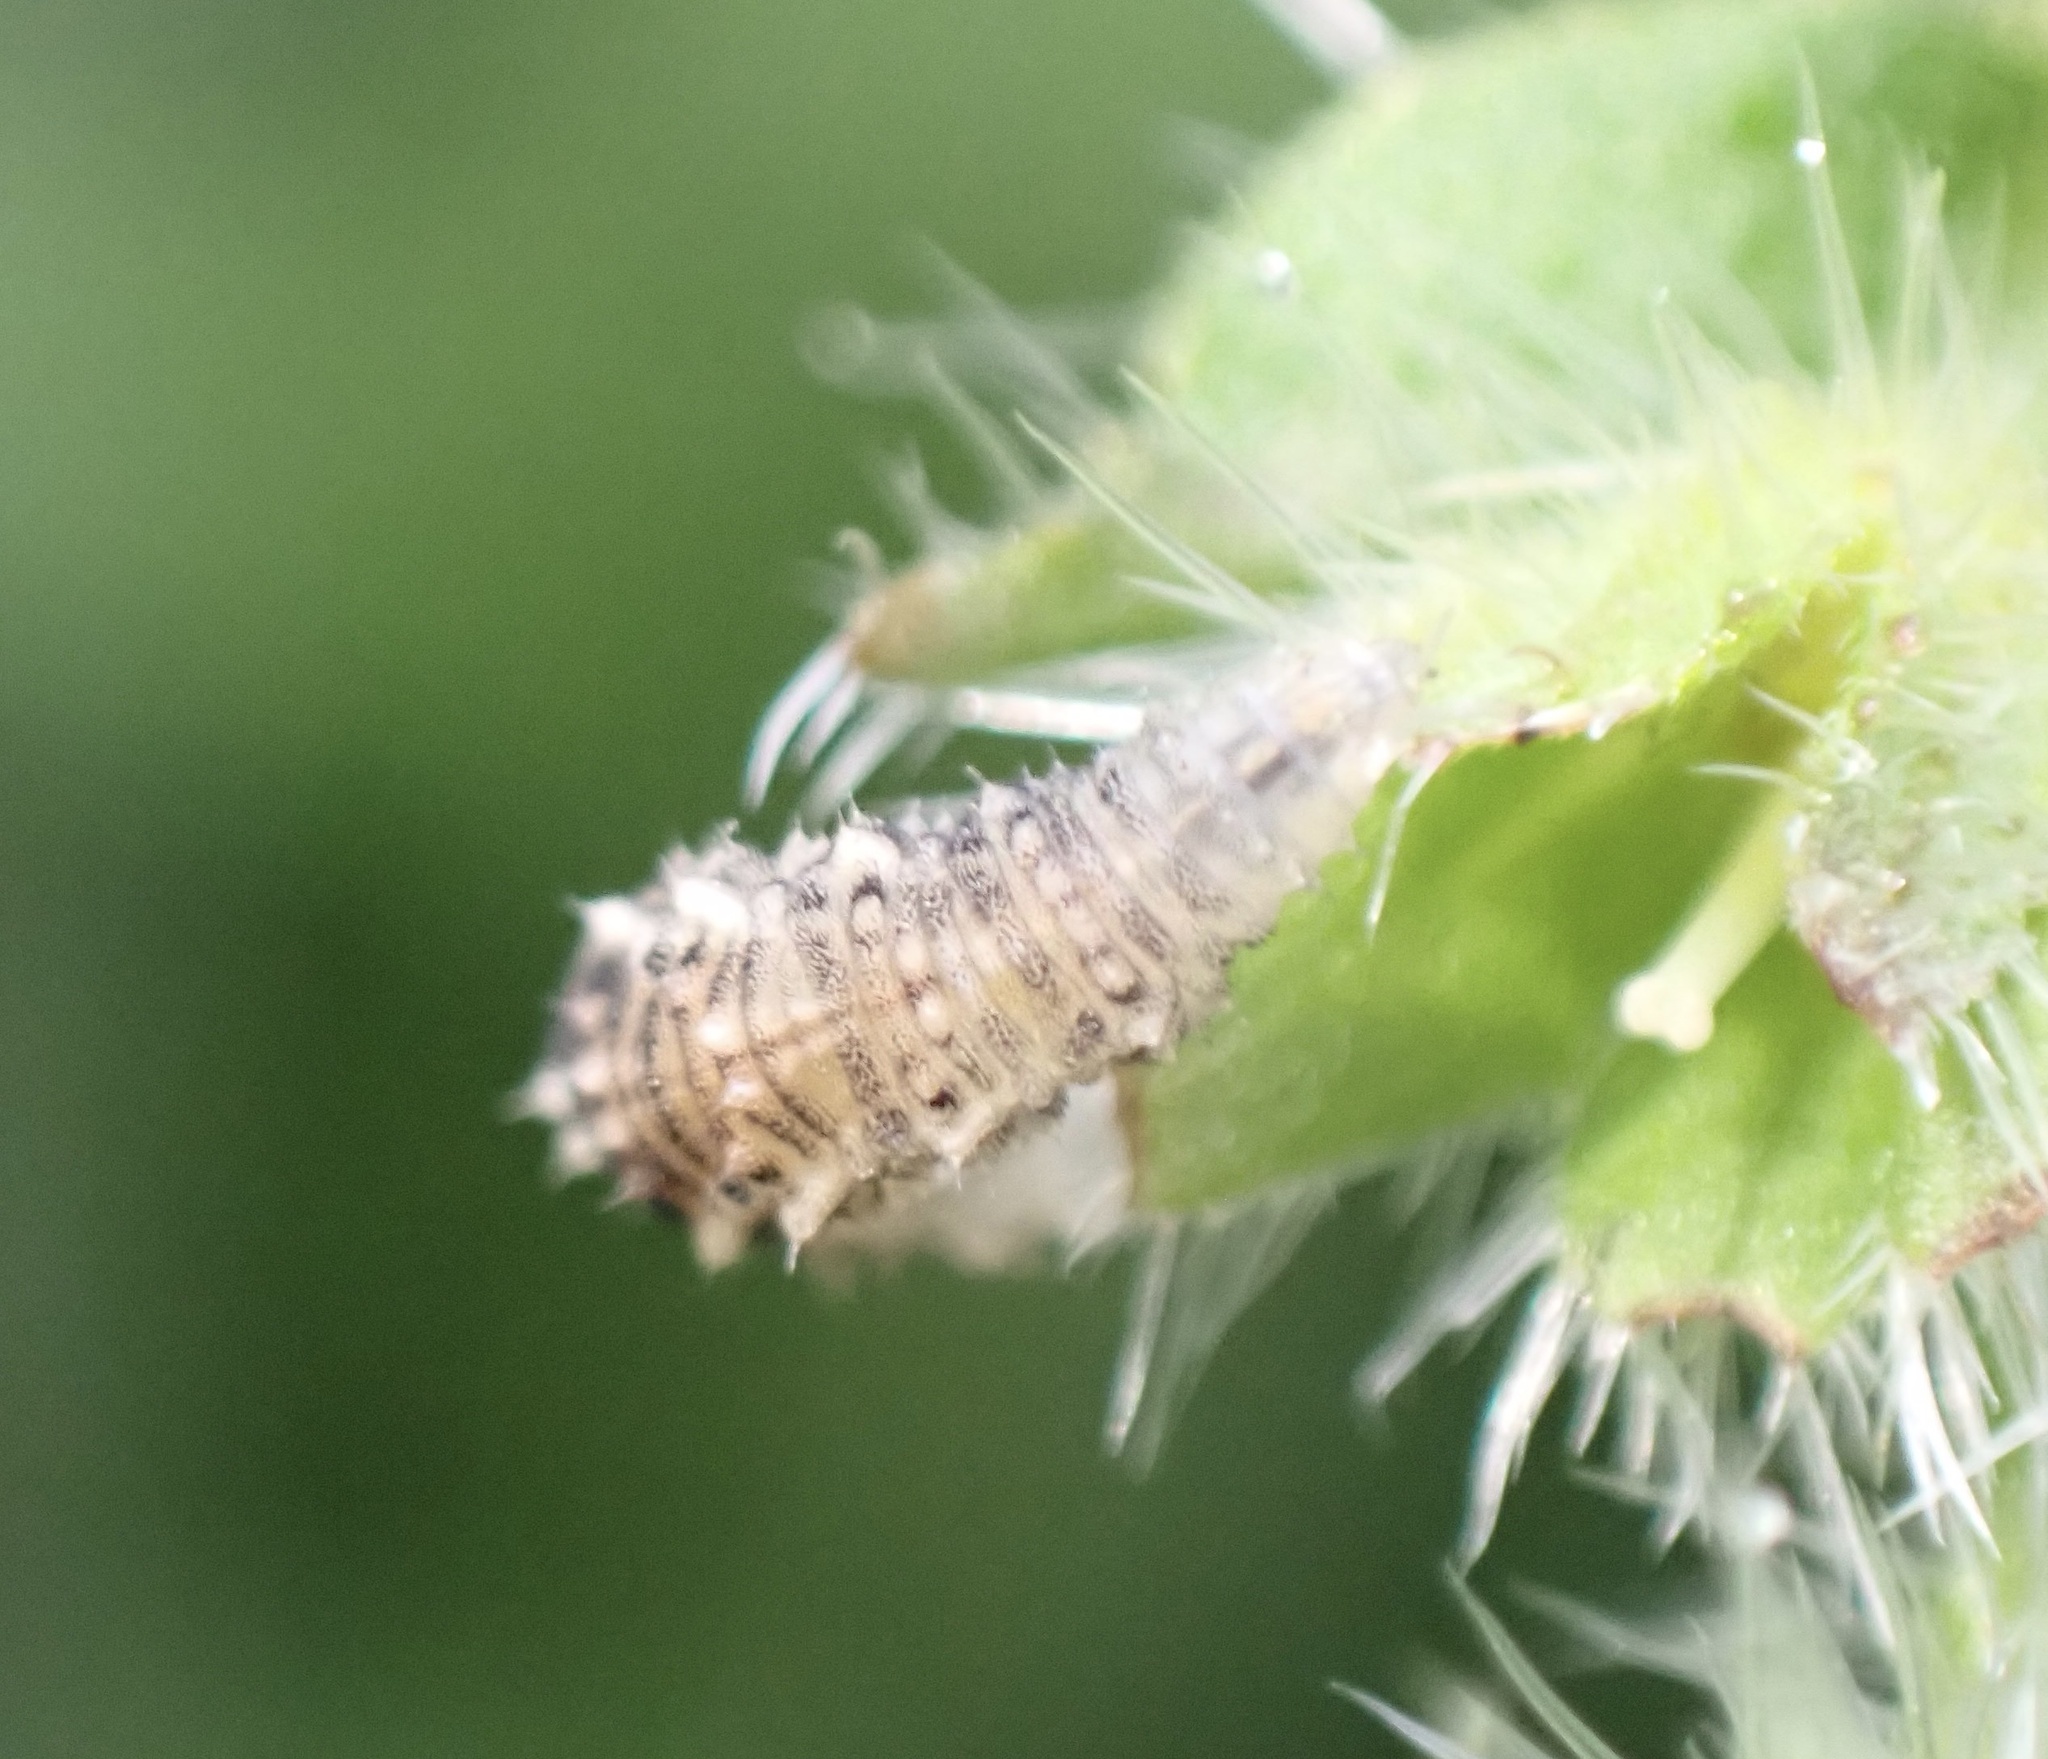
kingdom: Animalia
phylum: Arthropoda
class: Insecta
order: Diptera
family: Syrphidae
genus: Eupeodes
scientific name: Eupeodes
